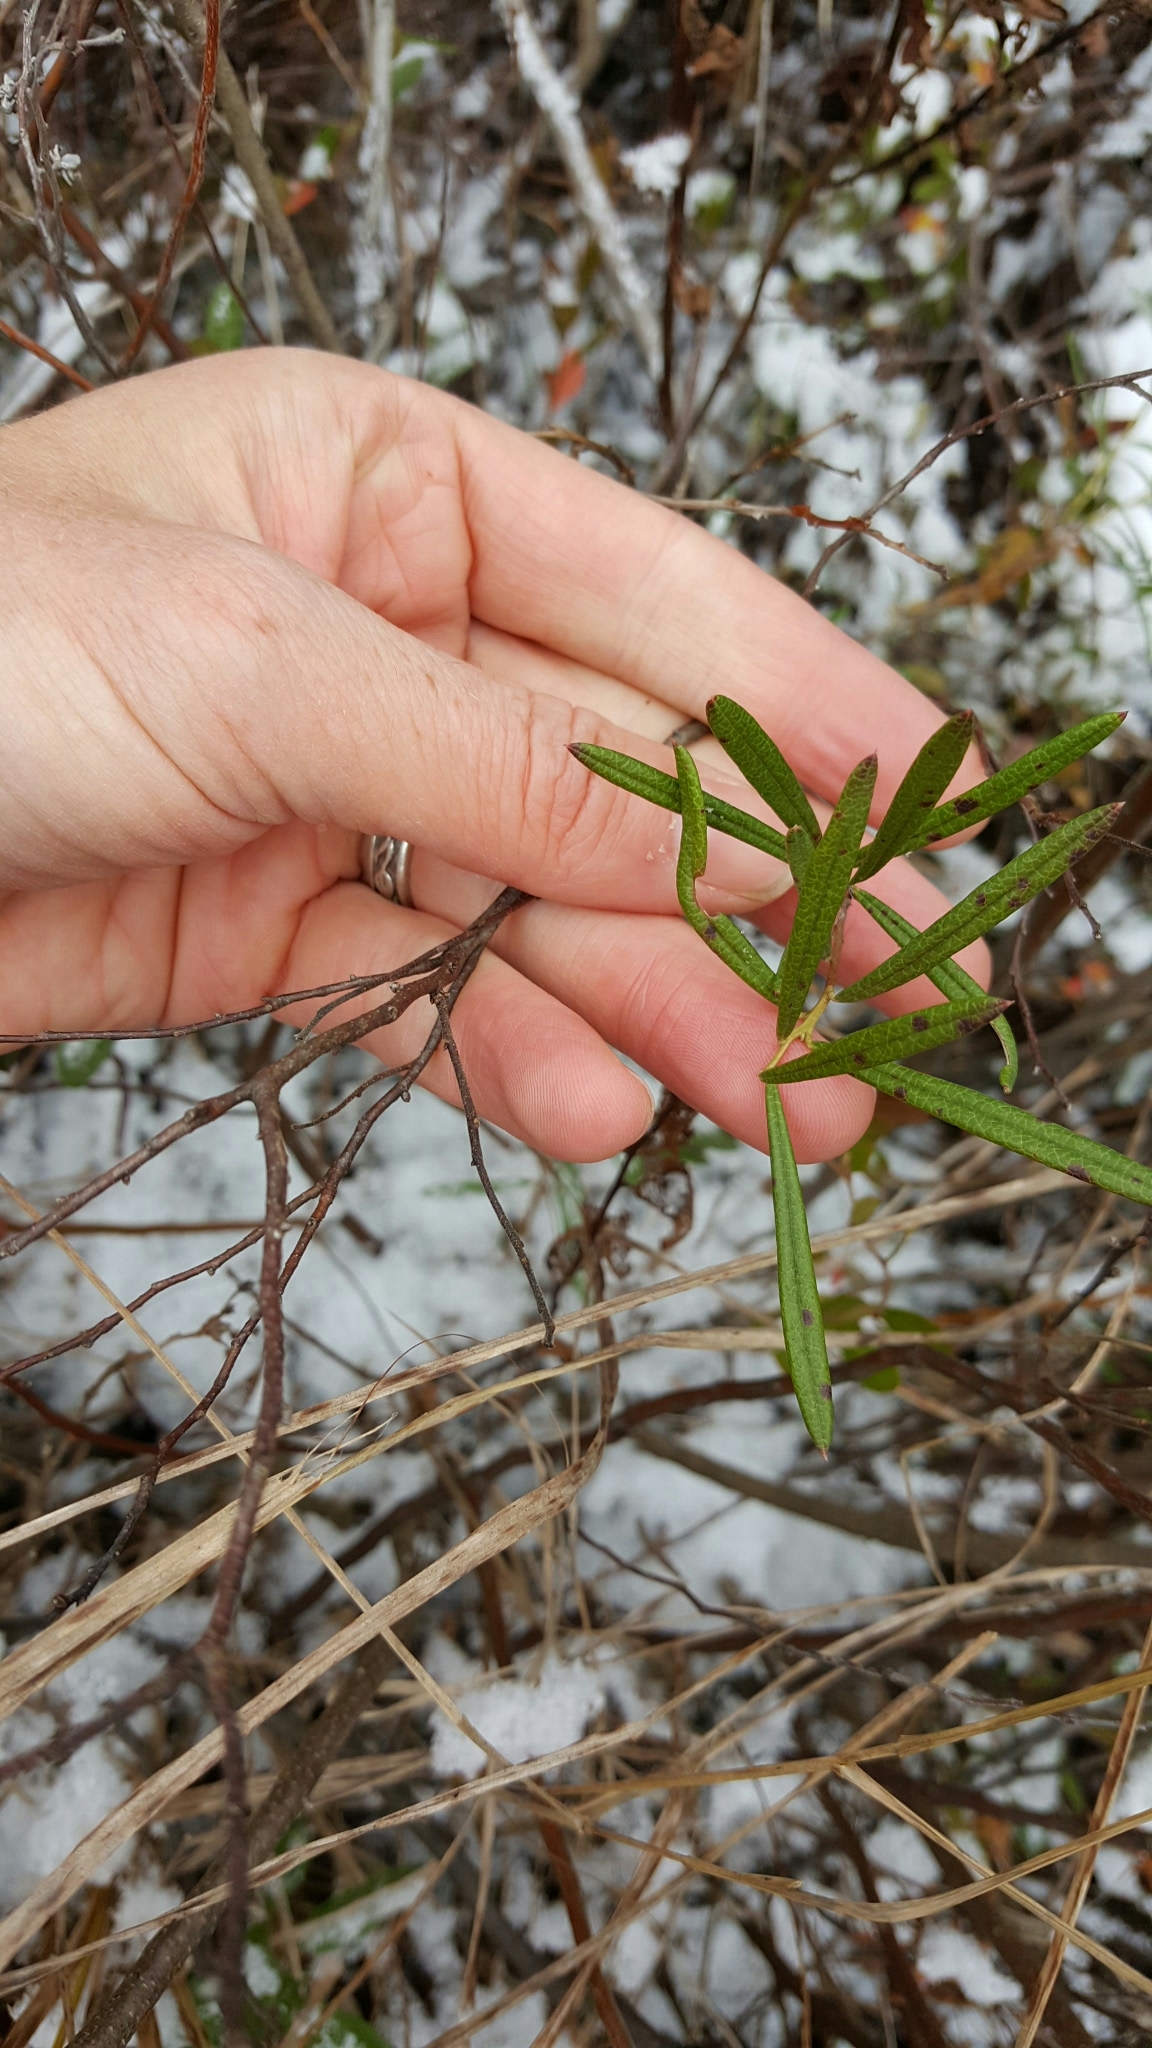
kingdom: Plantae
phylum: Tracheophyta
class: Magnoliopsida
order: Ericales
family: Ericaceae
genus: Andromeda
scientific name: Andromeda polifolia
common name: Bog-rosemary
